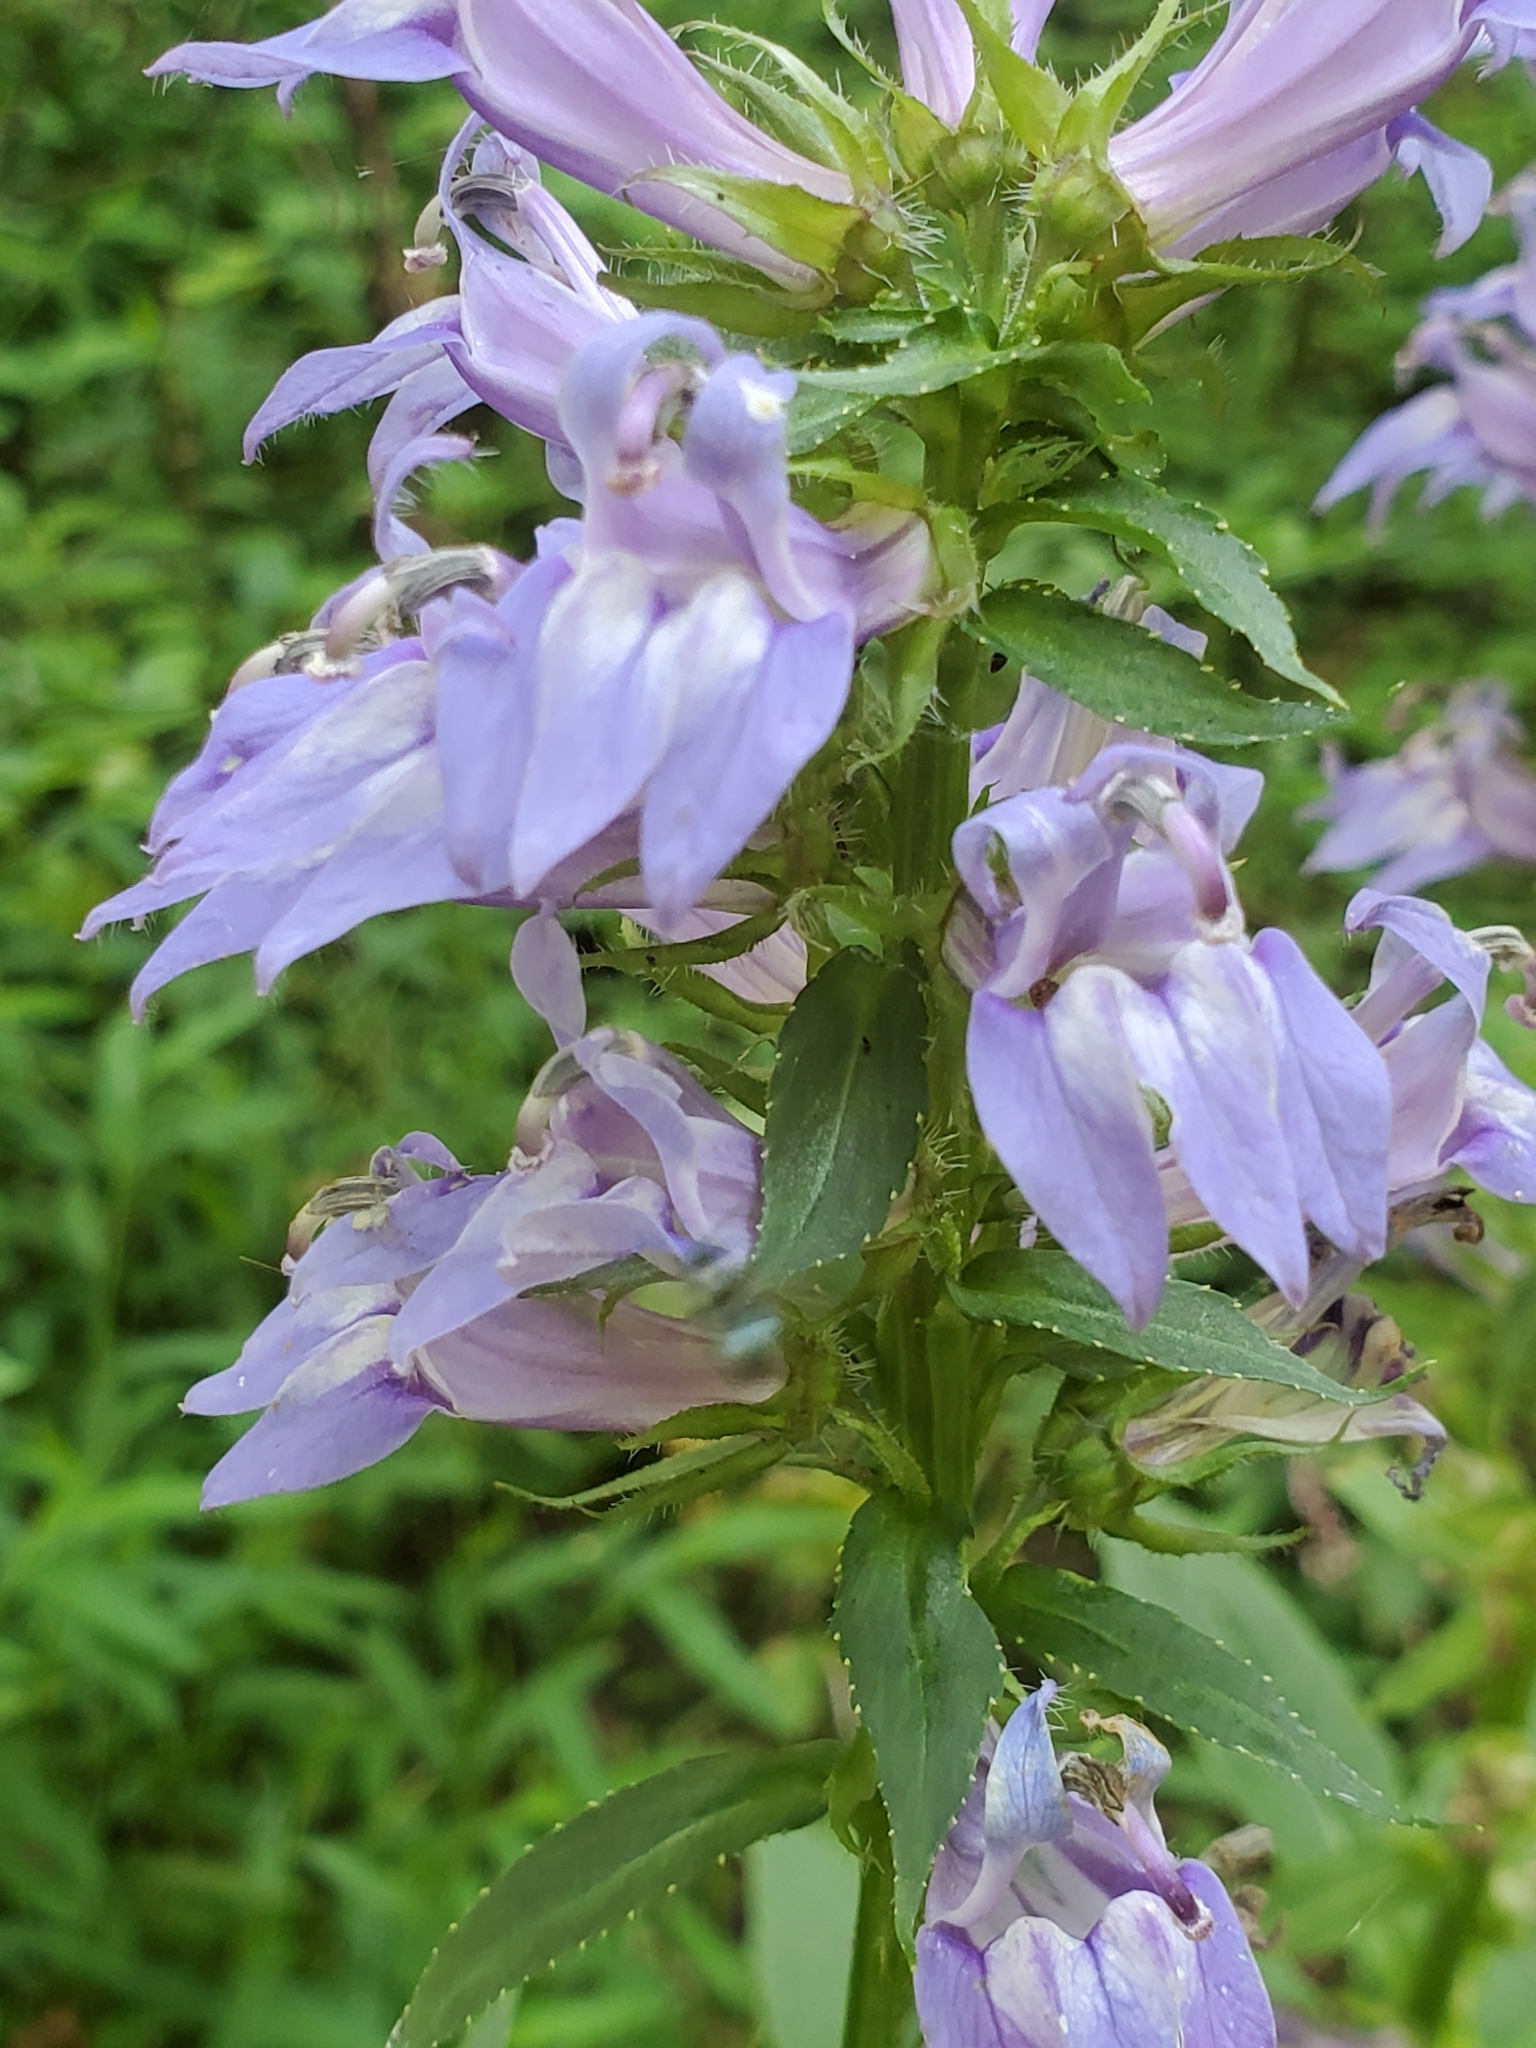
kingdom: Plantae
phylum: Tracheophyta
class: Magnoliopsida
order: Asterales
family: Campanulaceae
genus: Lobelia
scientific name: Lobelia siphilitica
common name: Great lobelia
